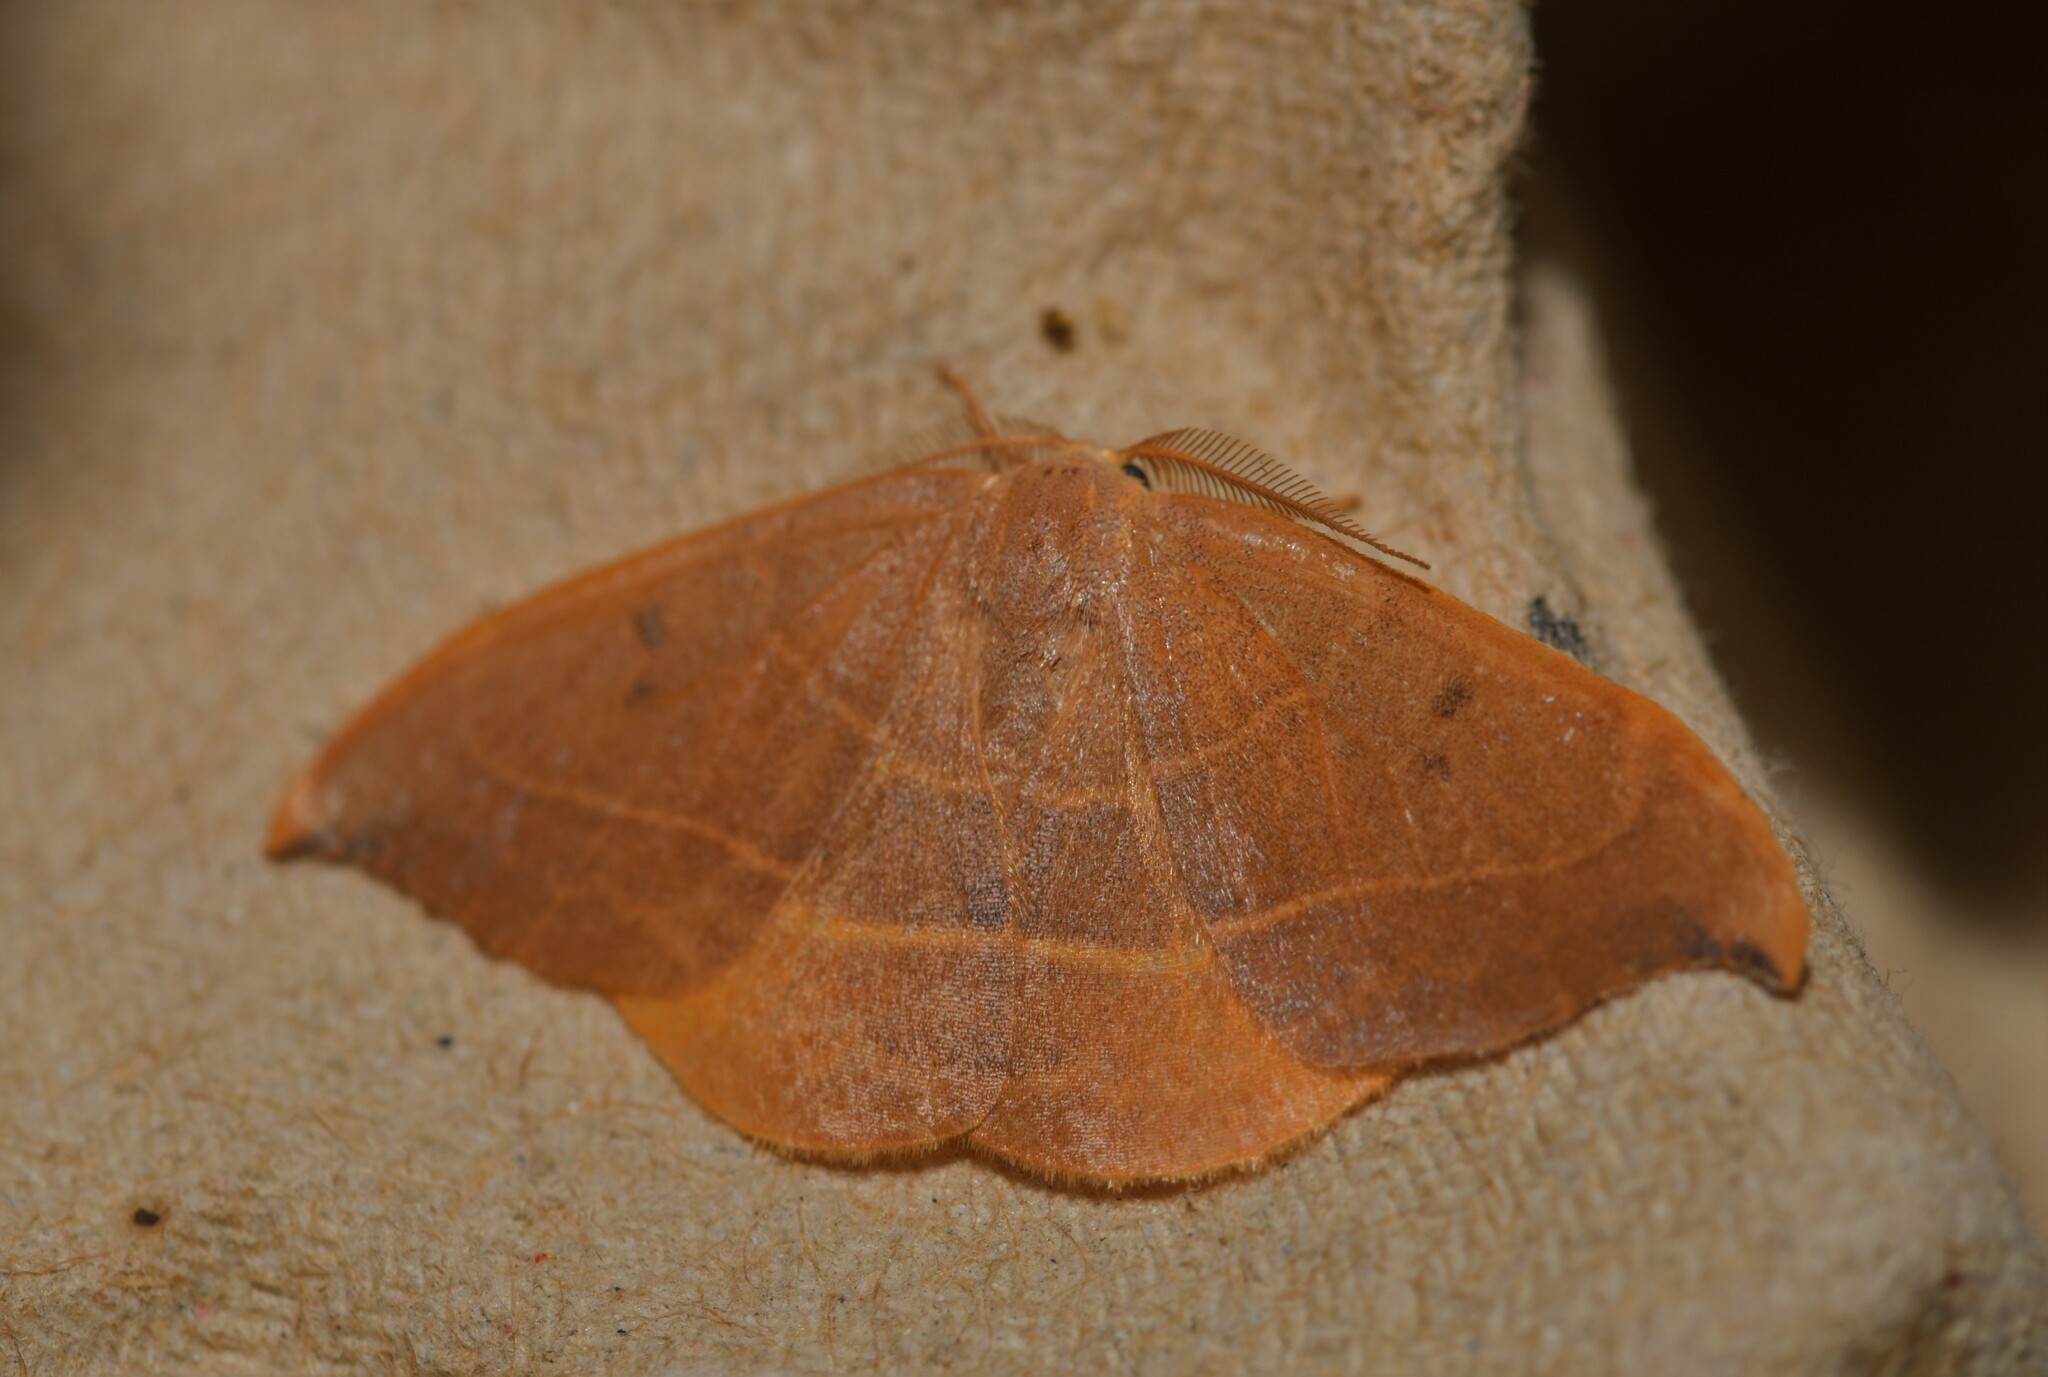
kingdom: Animalia
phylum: Arthropoda
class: Insecta
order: Lepidoptera
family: Drepanidae
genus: Watsonalla
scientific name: Watsonalla uncinula
